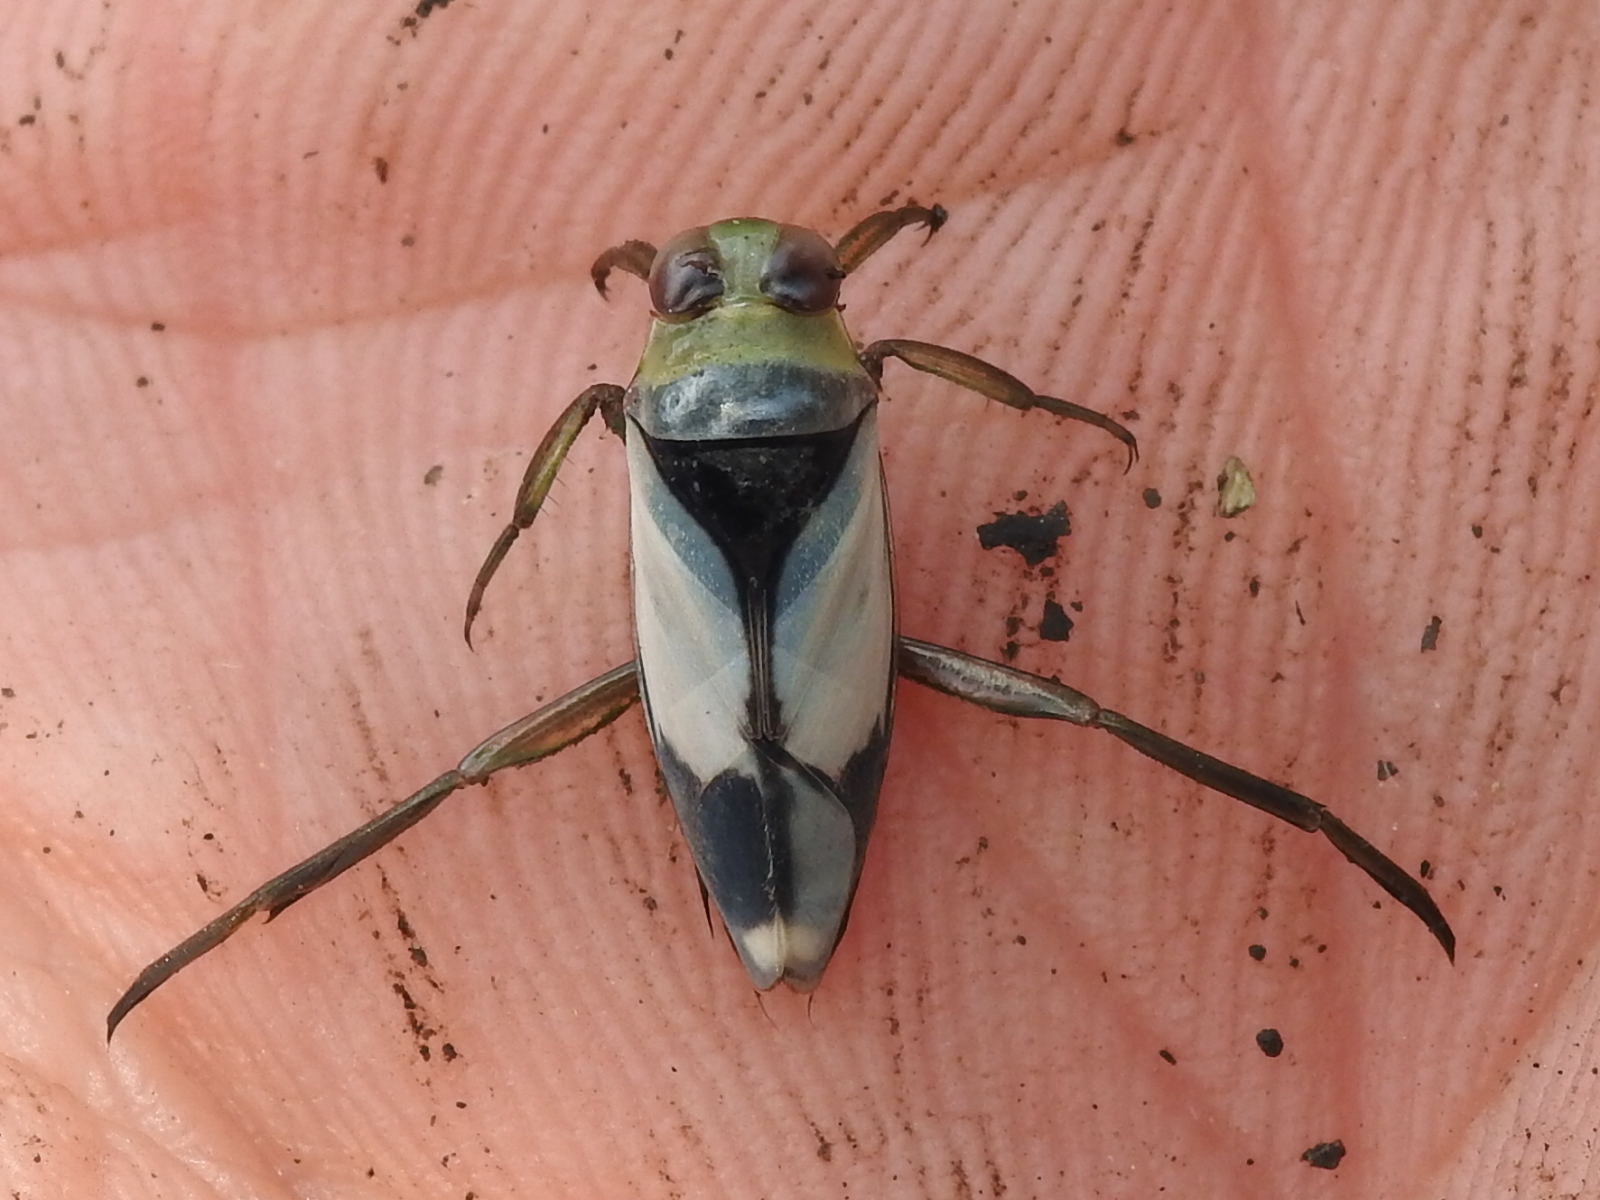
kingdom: Animalia
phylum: Arthropoda
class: Insecta
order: Hemiptera
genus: Paranecta
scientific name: Paranecta
